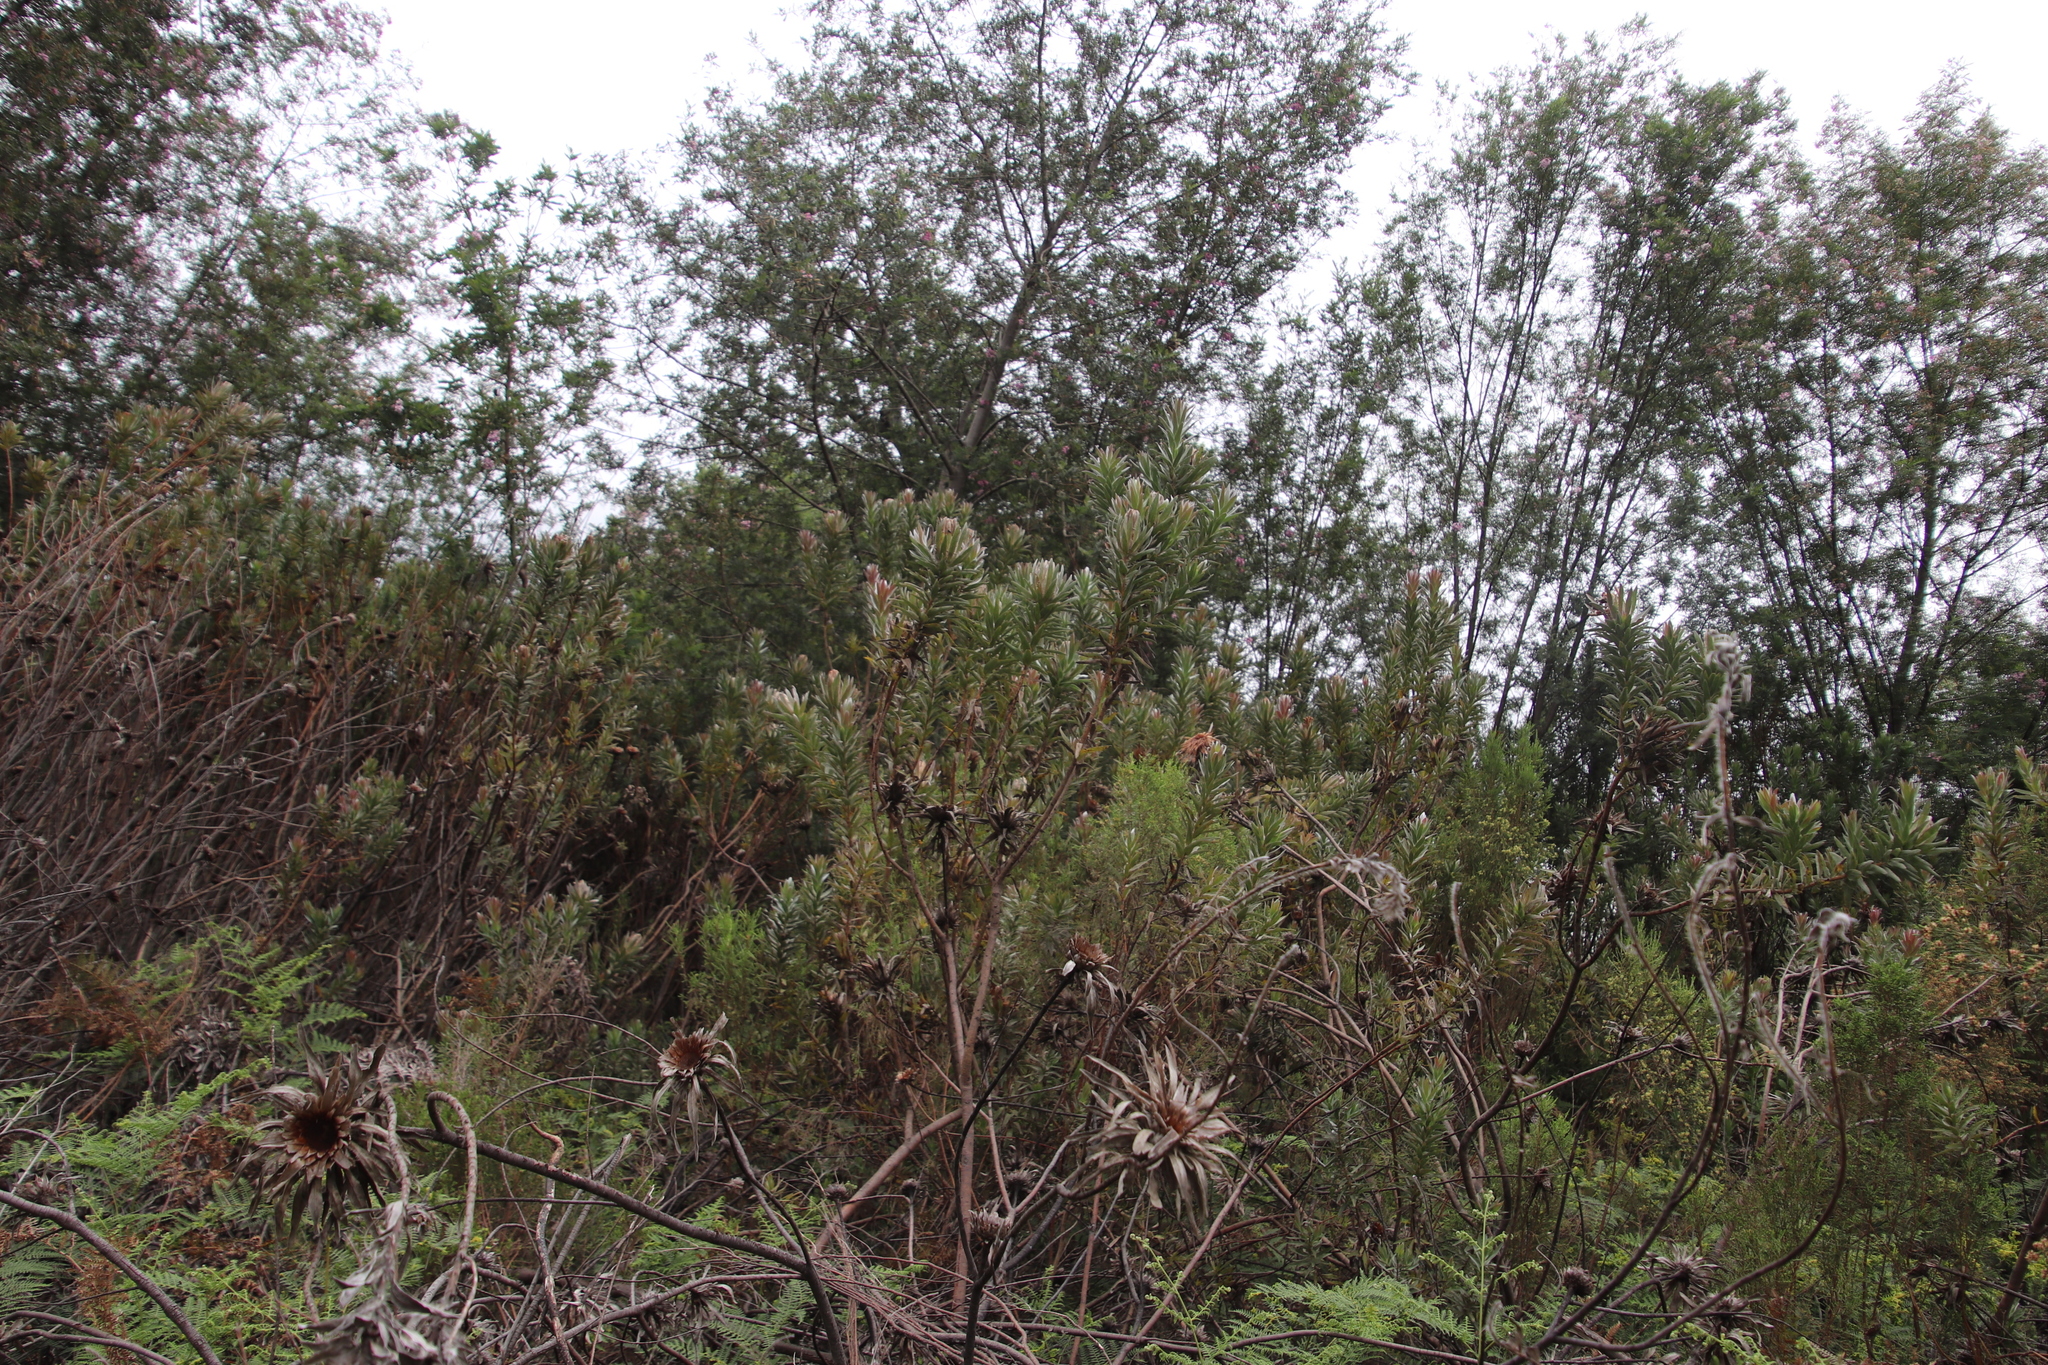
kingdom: Plantae
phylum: Tracheophyta
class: Magnoliopsida
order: Proteales
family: Proteaceae
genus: Protea
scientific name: Protea coronata
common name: Green sugarbush
